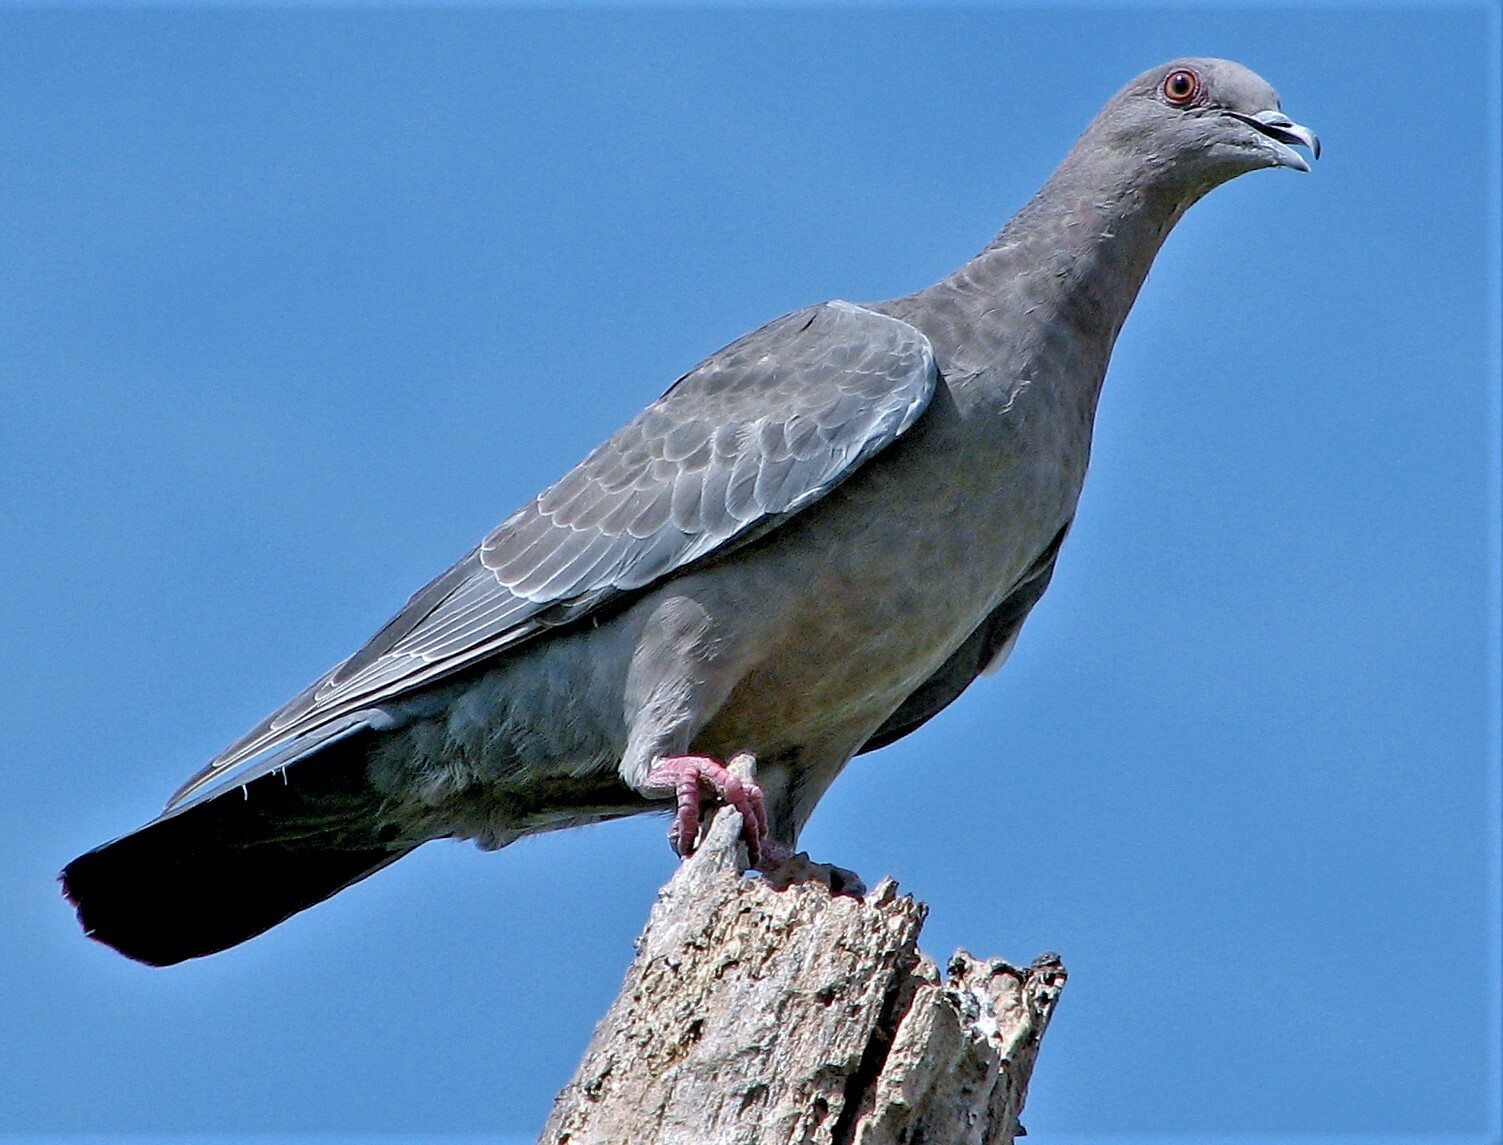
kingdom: Animalia
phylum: Chordata
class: Aves
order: Columbiformes
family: Columbidae
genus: Patagioenas
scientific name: Patagioenas picazuro
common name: Picazuro pigeon
